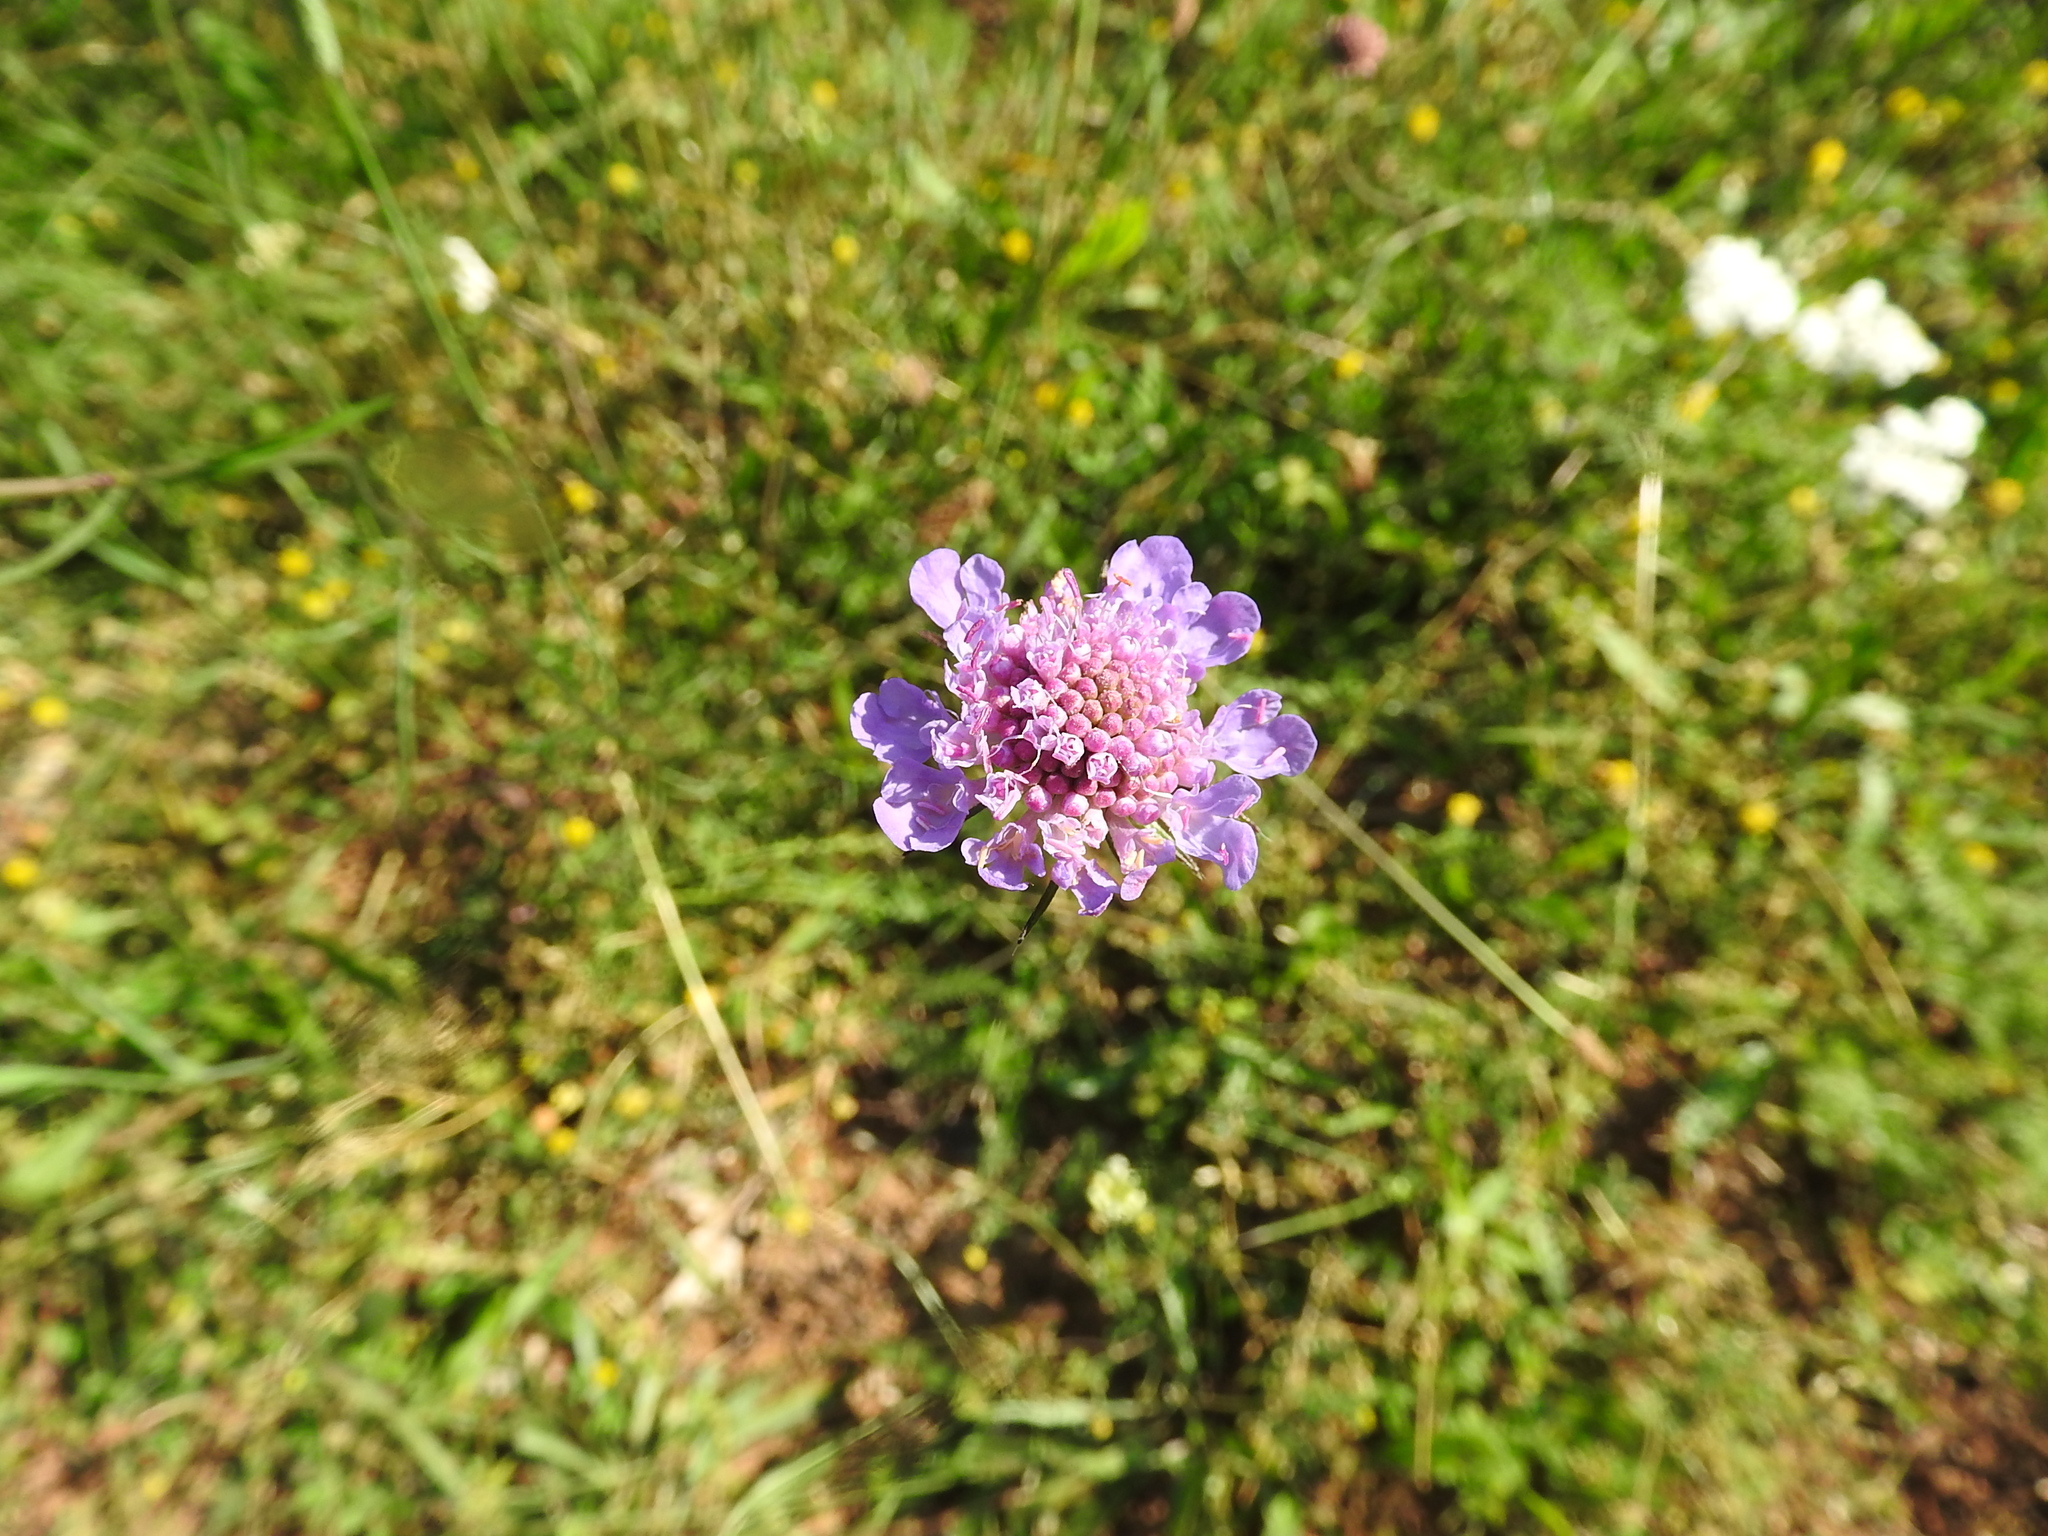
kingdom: Plantae
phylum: Tracheophyta
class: Magnoliopsida
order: Dipsacales
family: Caprifoliaceae
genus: Scabiosa
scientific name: Scabiosa triandra
